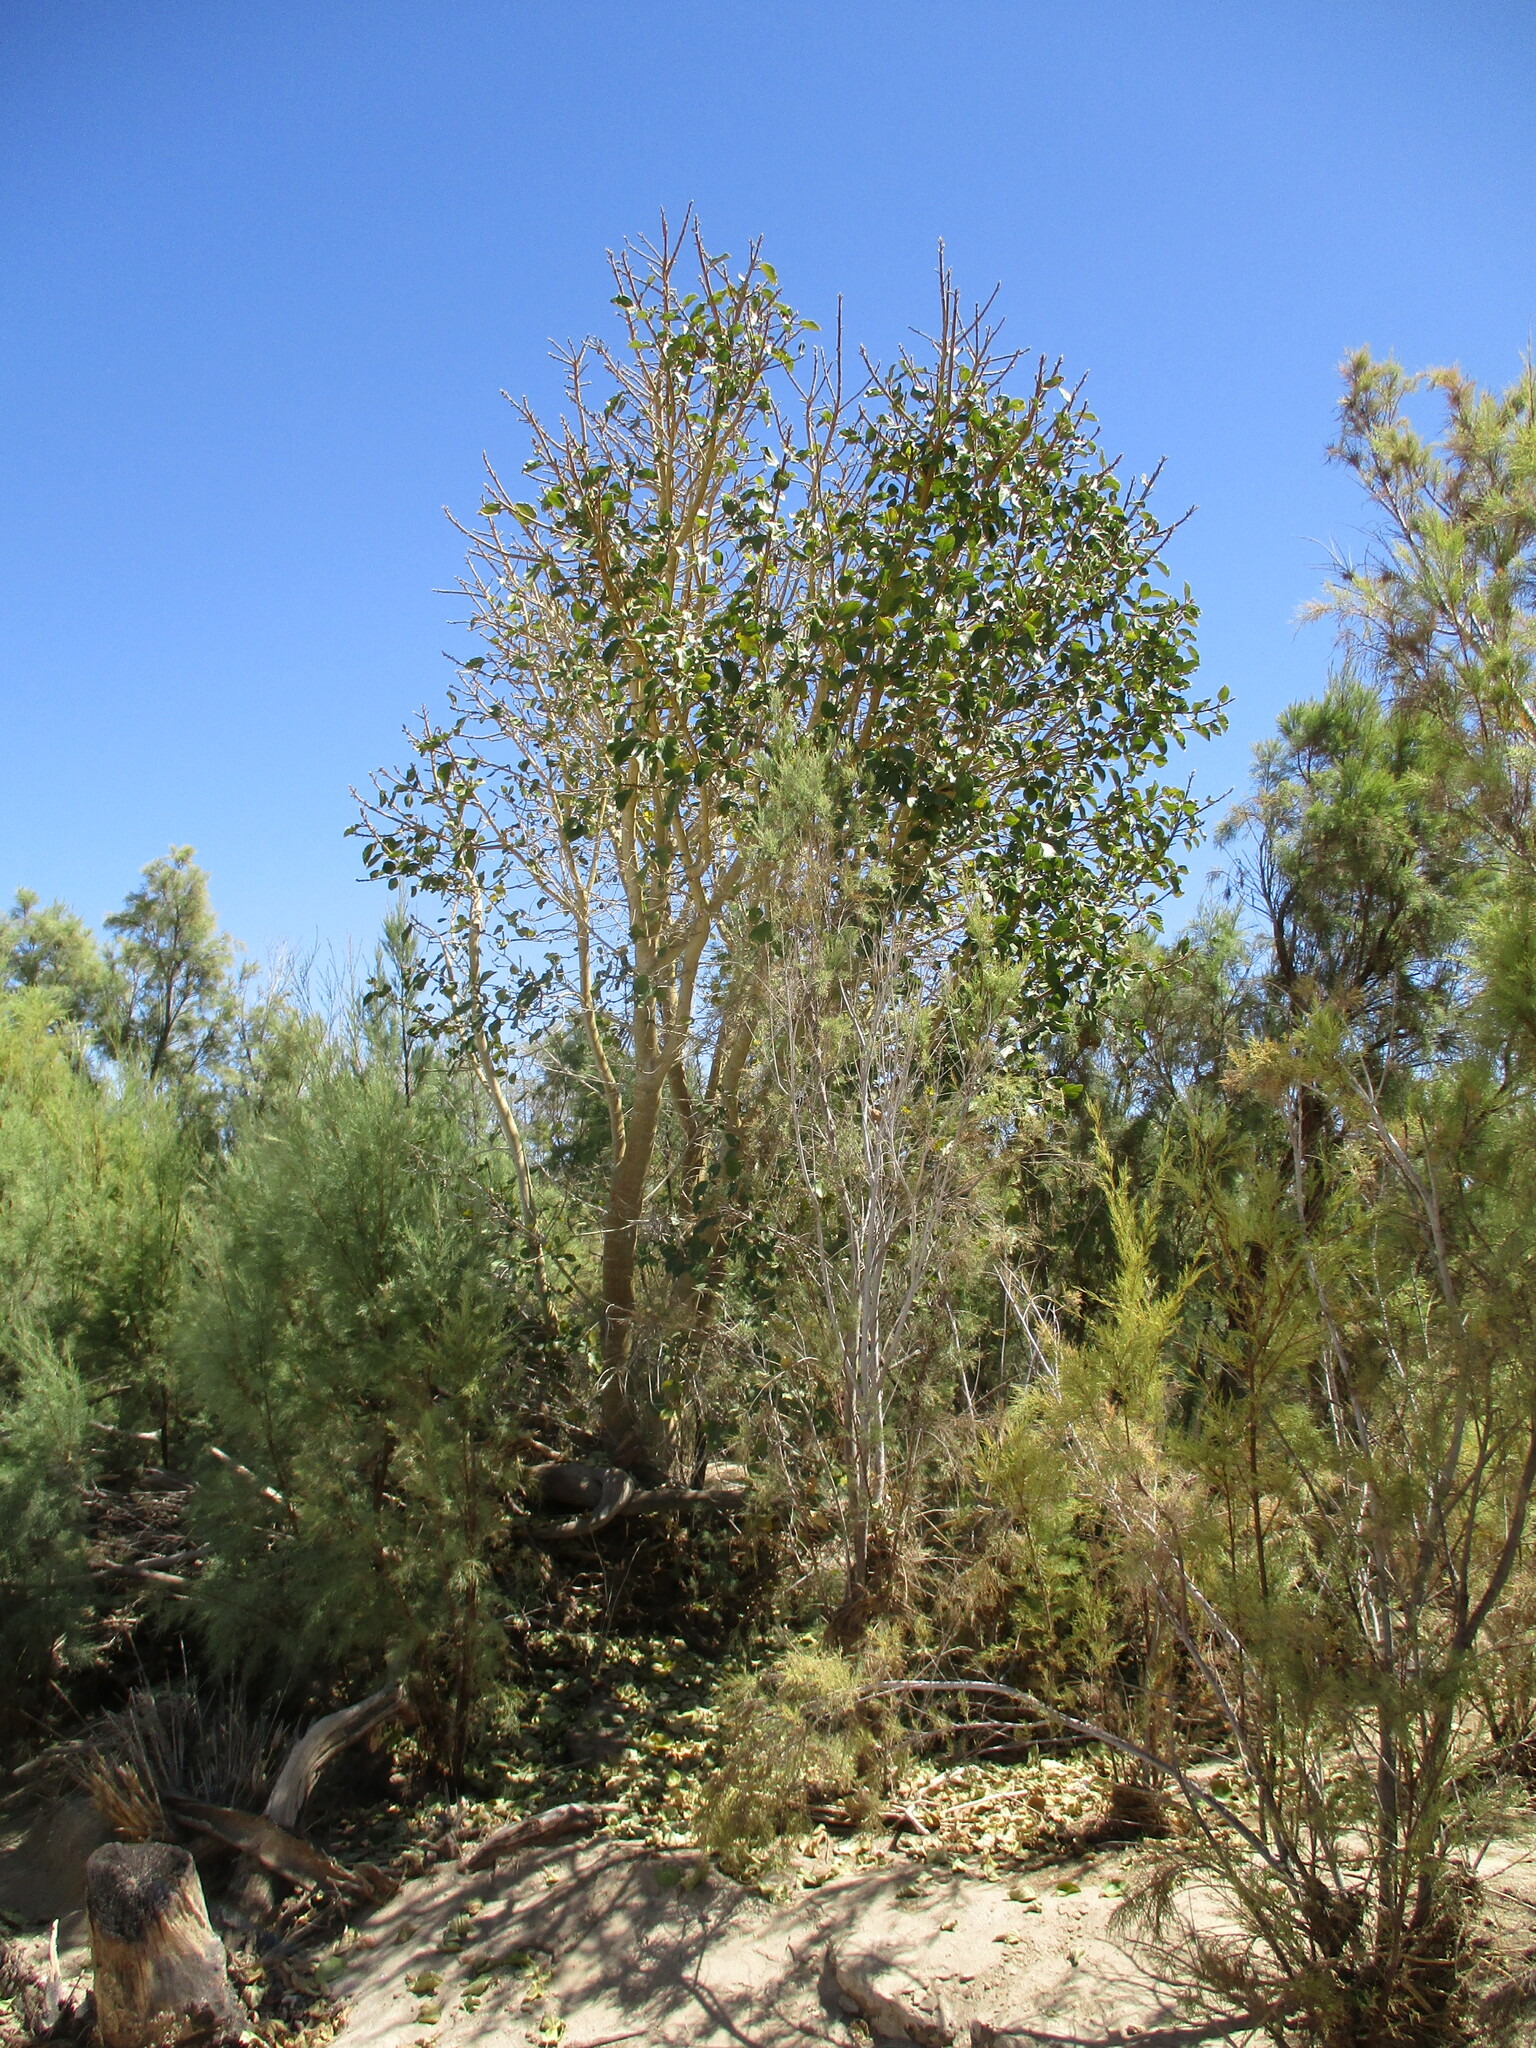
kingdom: Plantae
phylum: Tracheophyta
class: Magnoliopsida
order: Rosales
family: Moraceae
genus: Ficus
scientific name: Ficus sycomorus
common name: Sycomore
